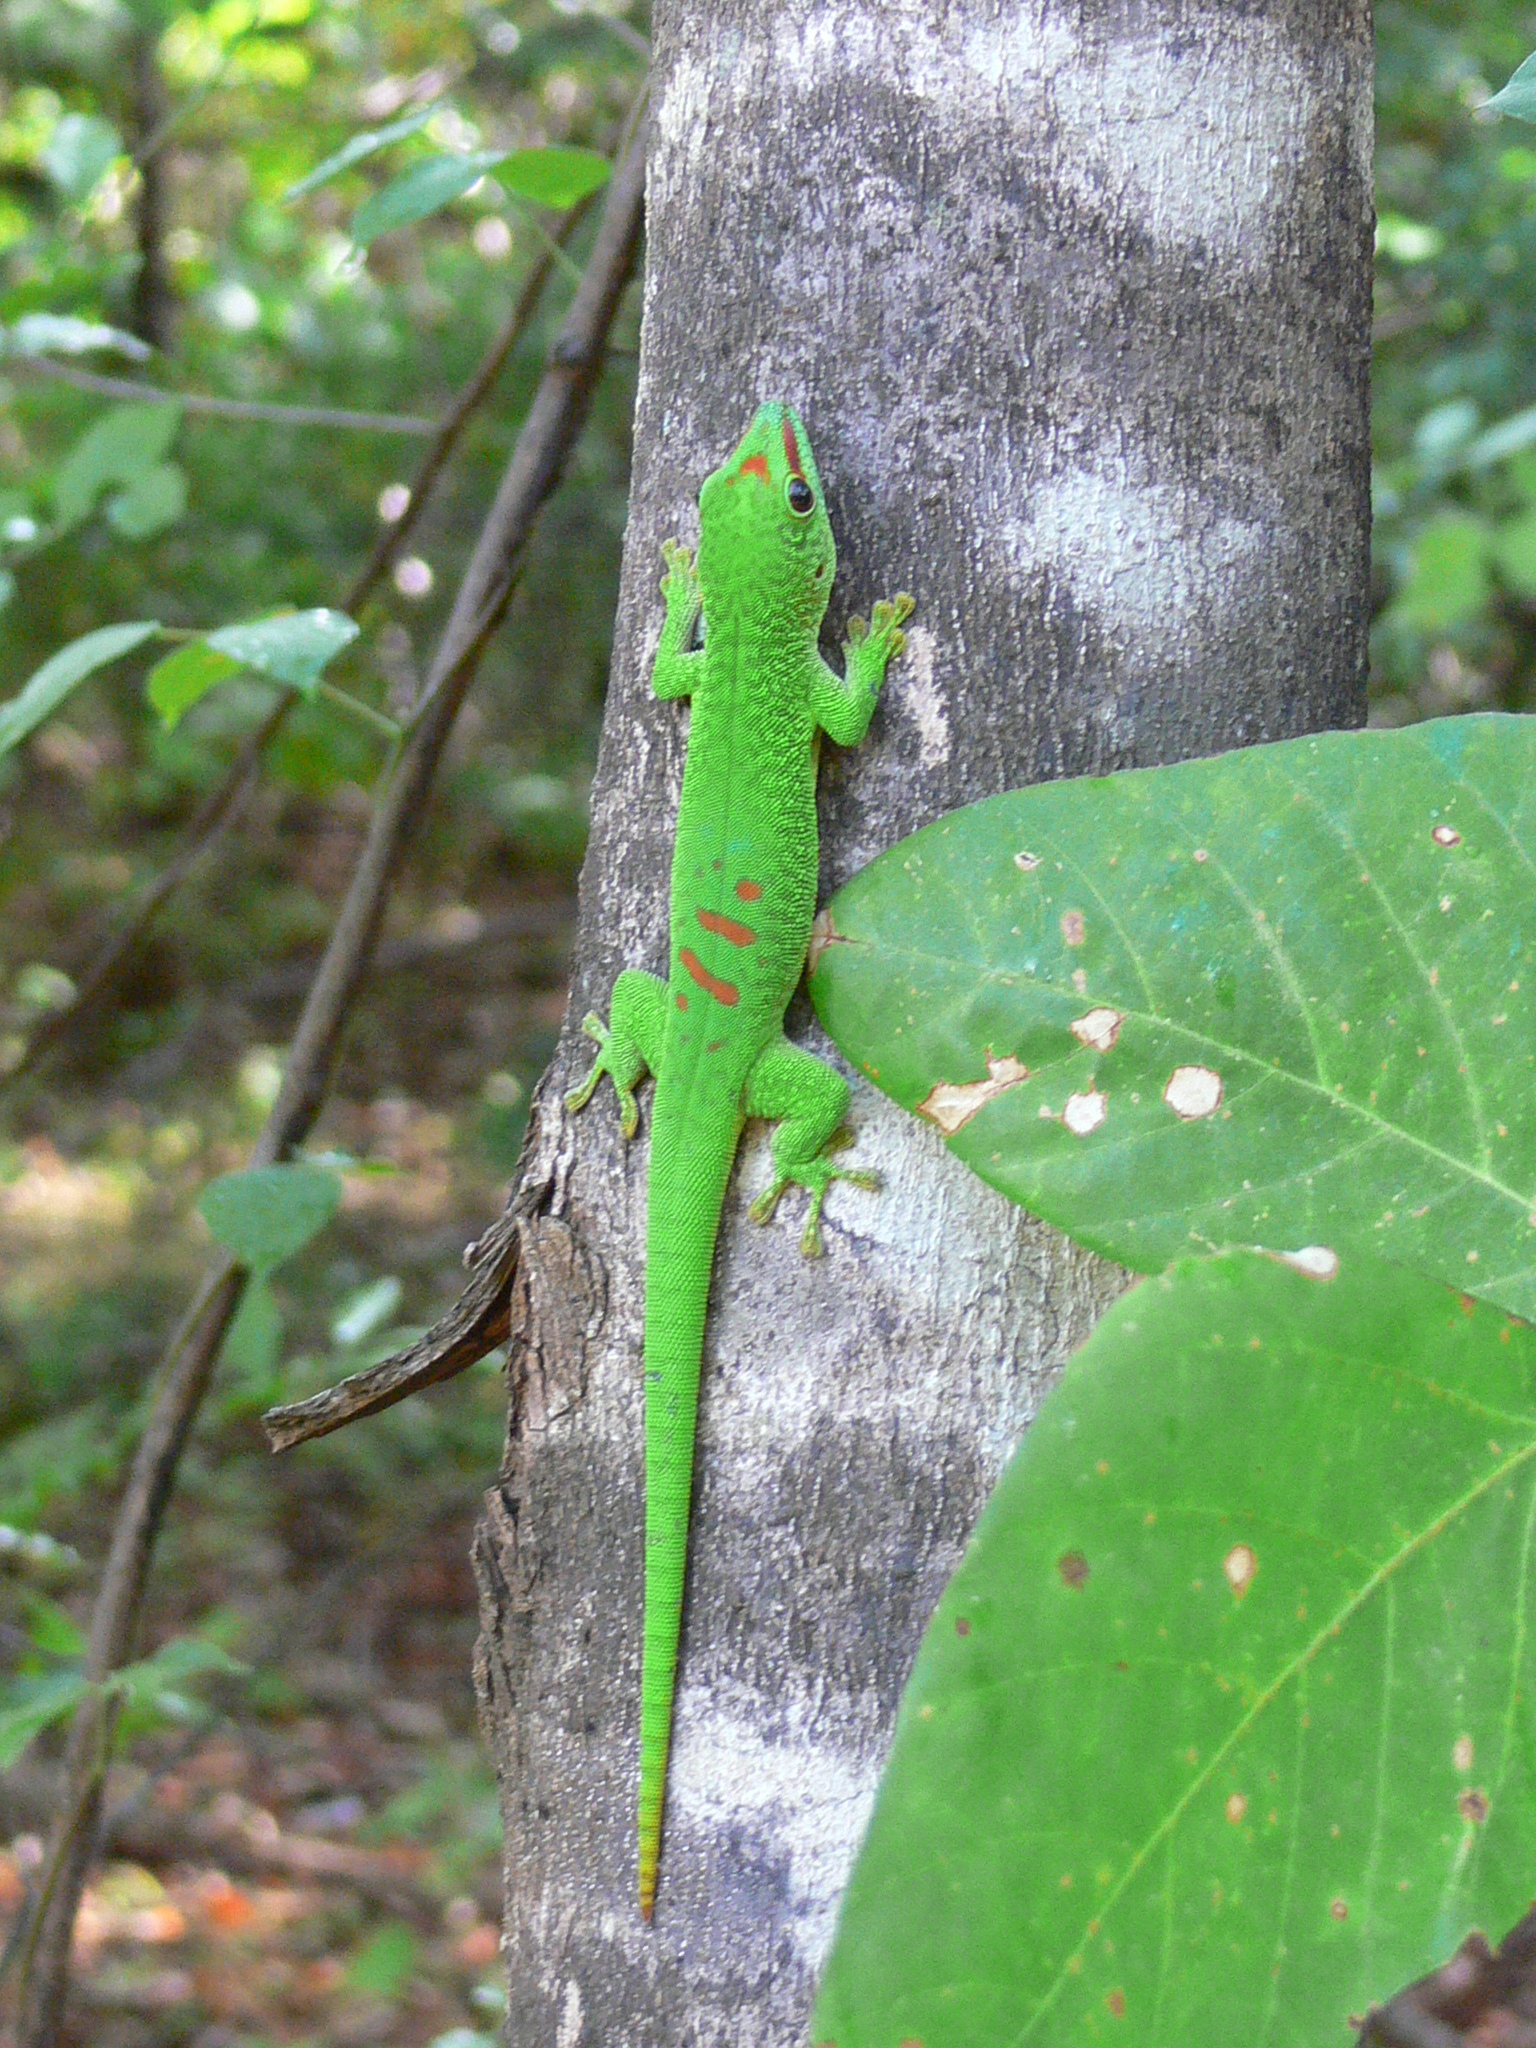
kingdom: Animalia
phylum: Chordata
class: Squamata
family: Gekkonidae
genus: Phelsuma
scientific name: Phelsuma grandis
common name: Madagascar giant day gecko
